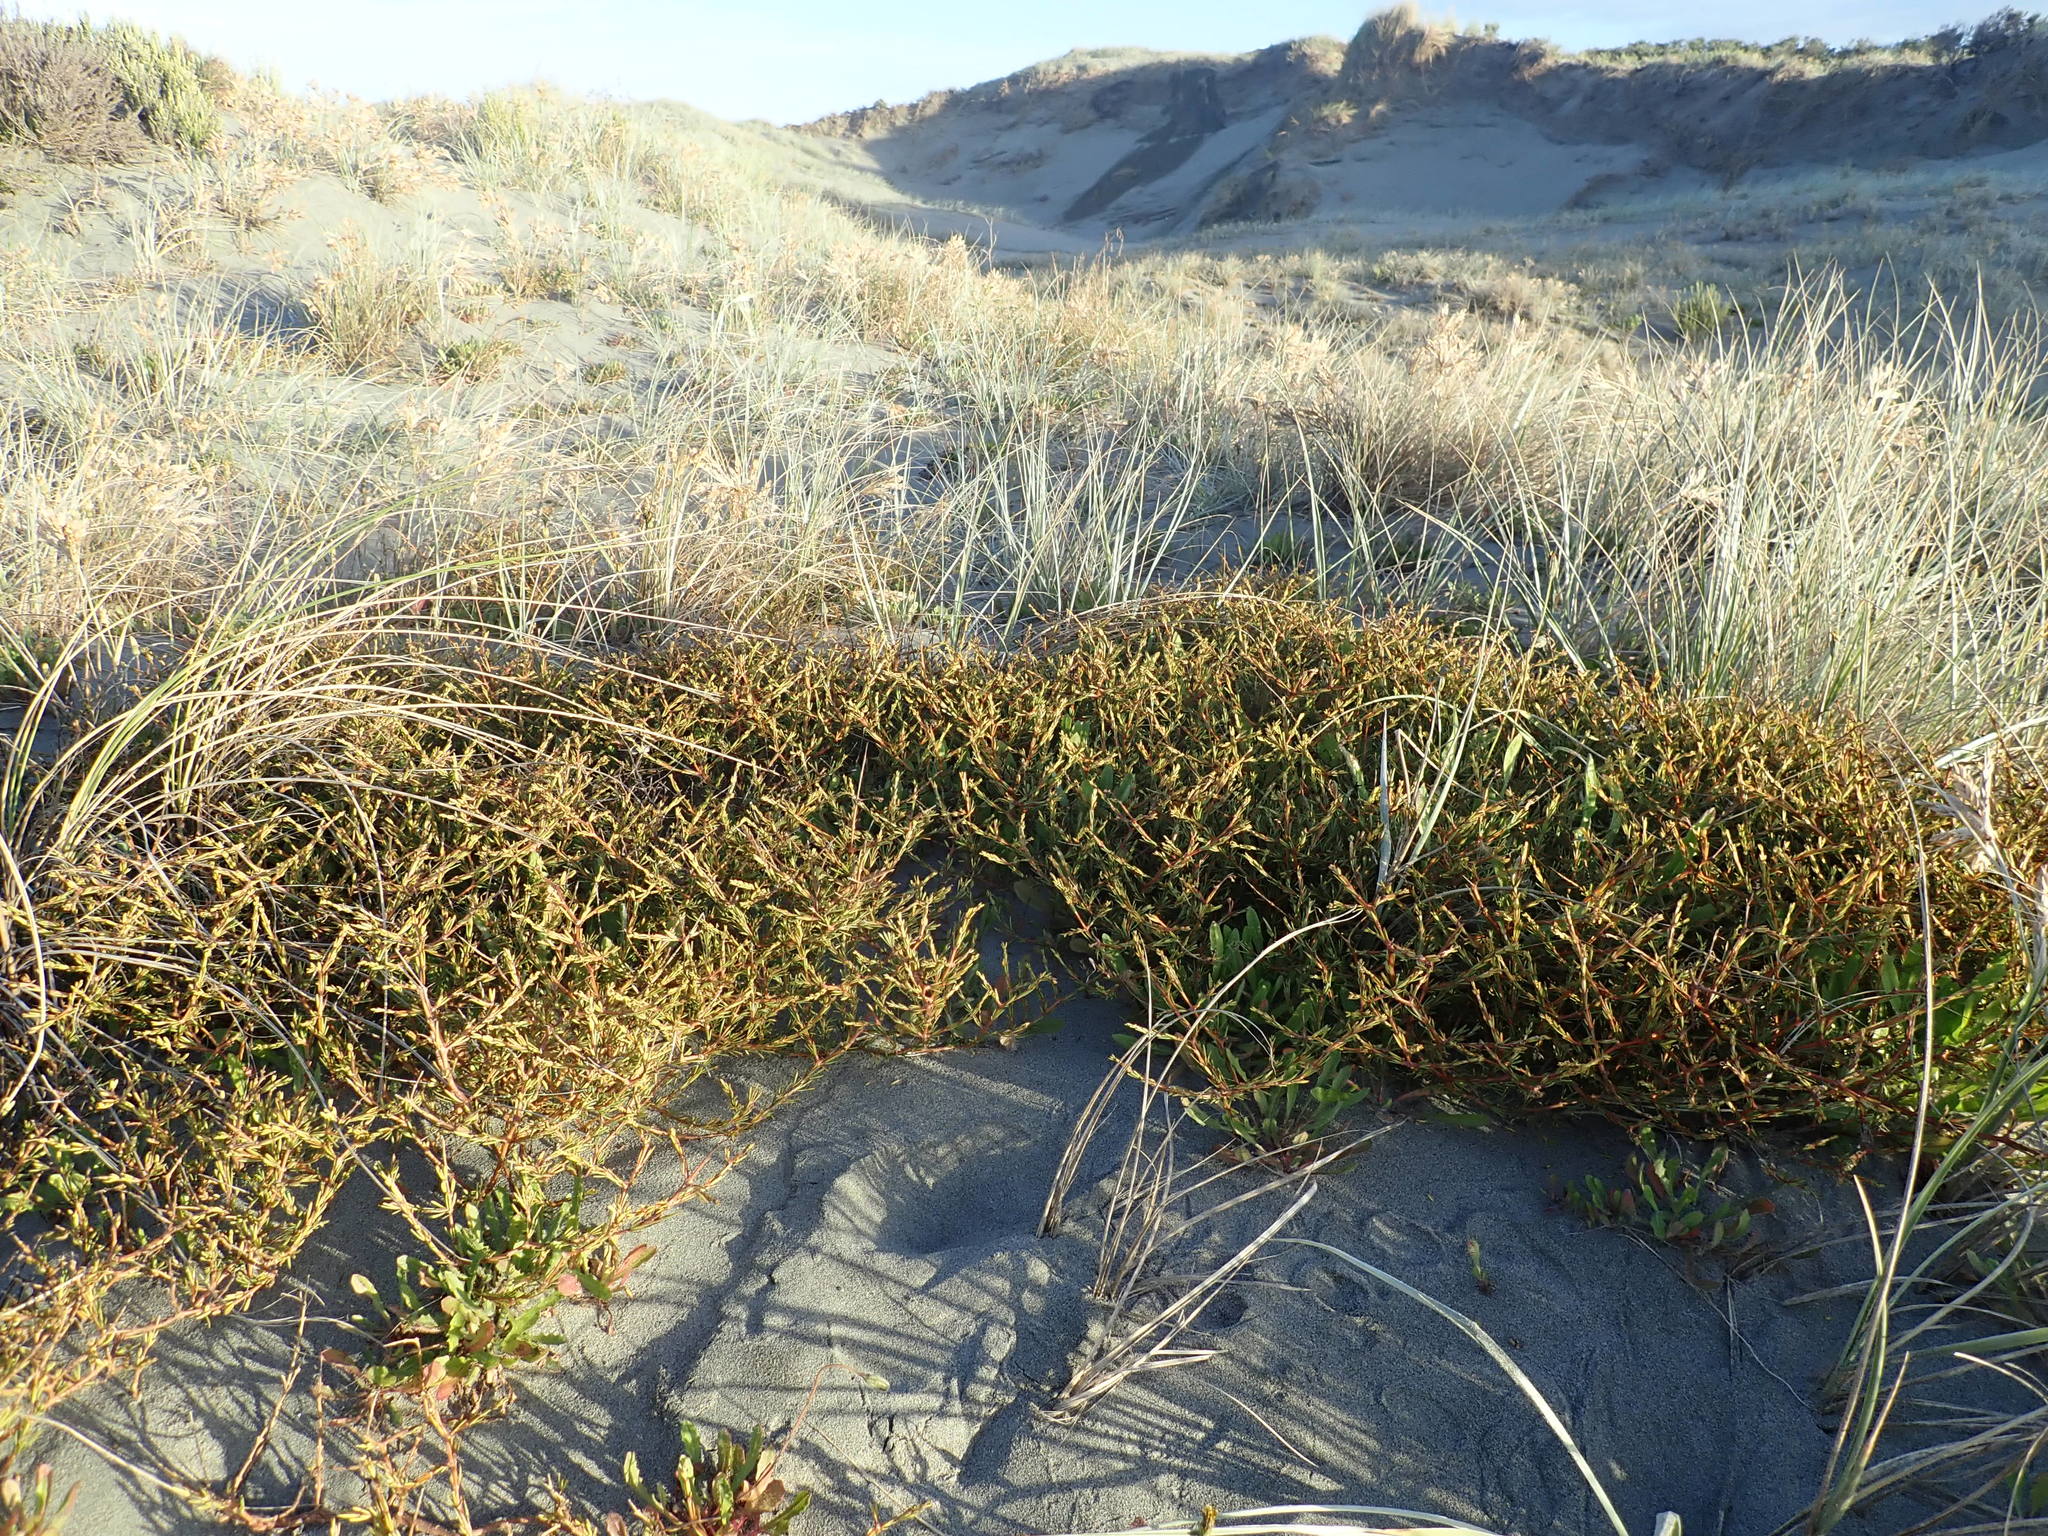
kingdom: Plantae
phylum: Tracheophyta
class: Magnoliopsida
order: Gentianales
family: Rubiaceae
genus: Coprosma
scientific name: Coprosma acerosa
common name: Sand coprosma
